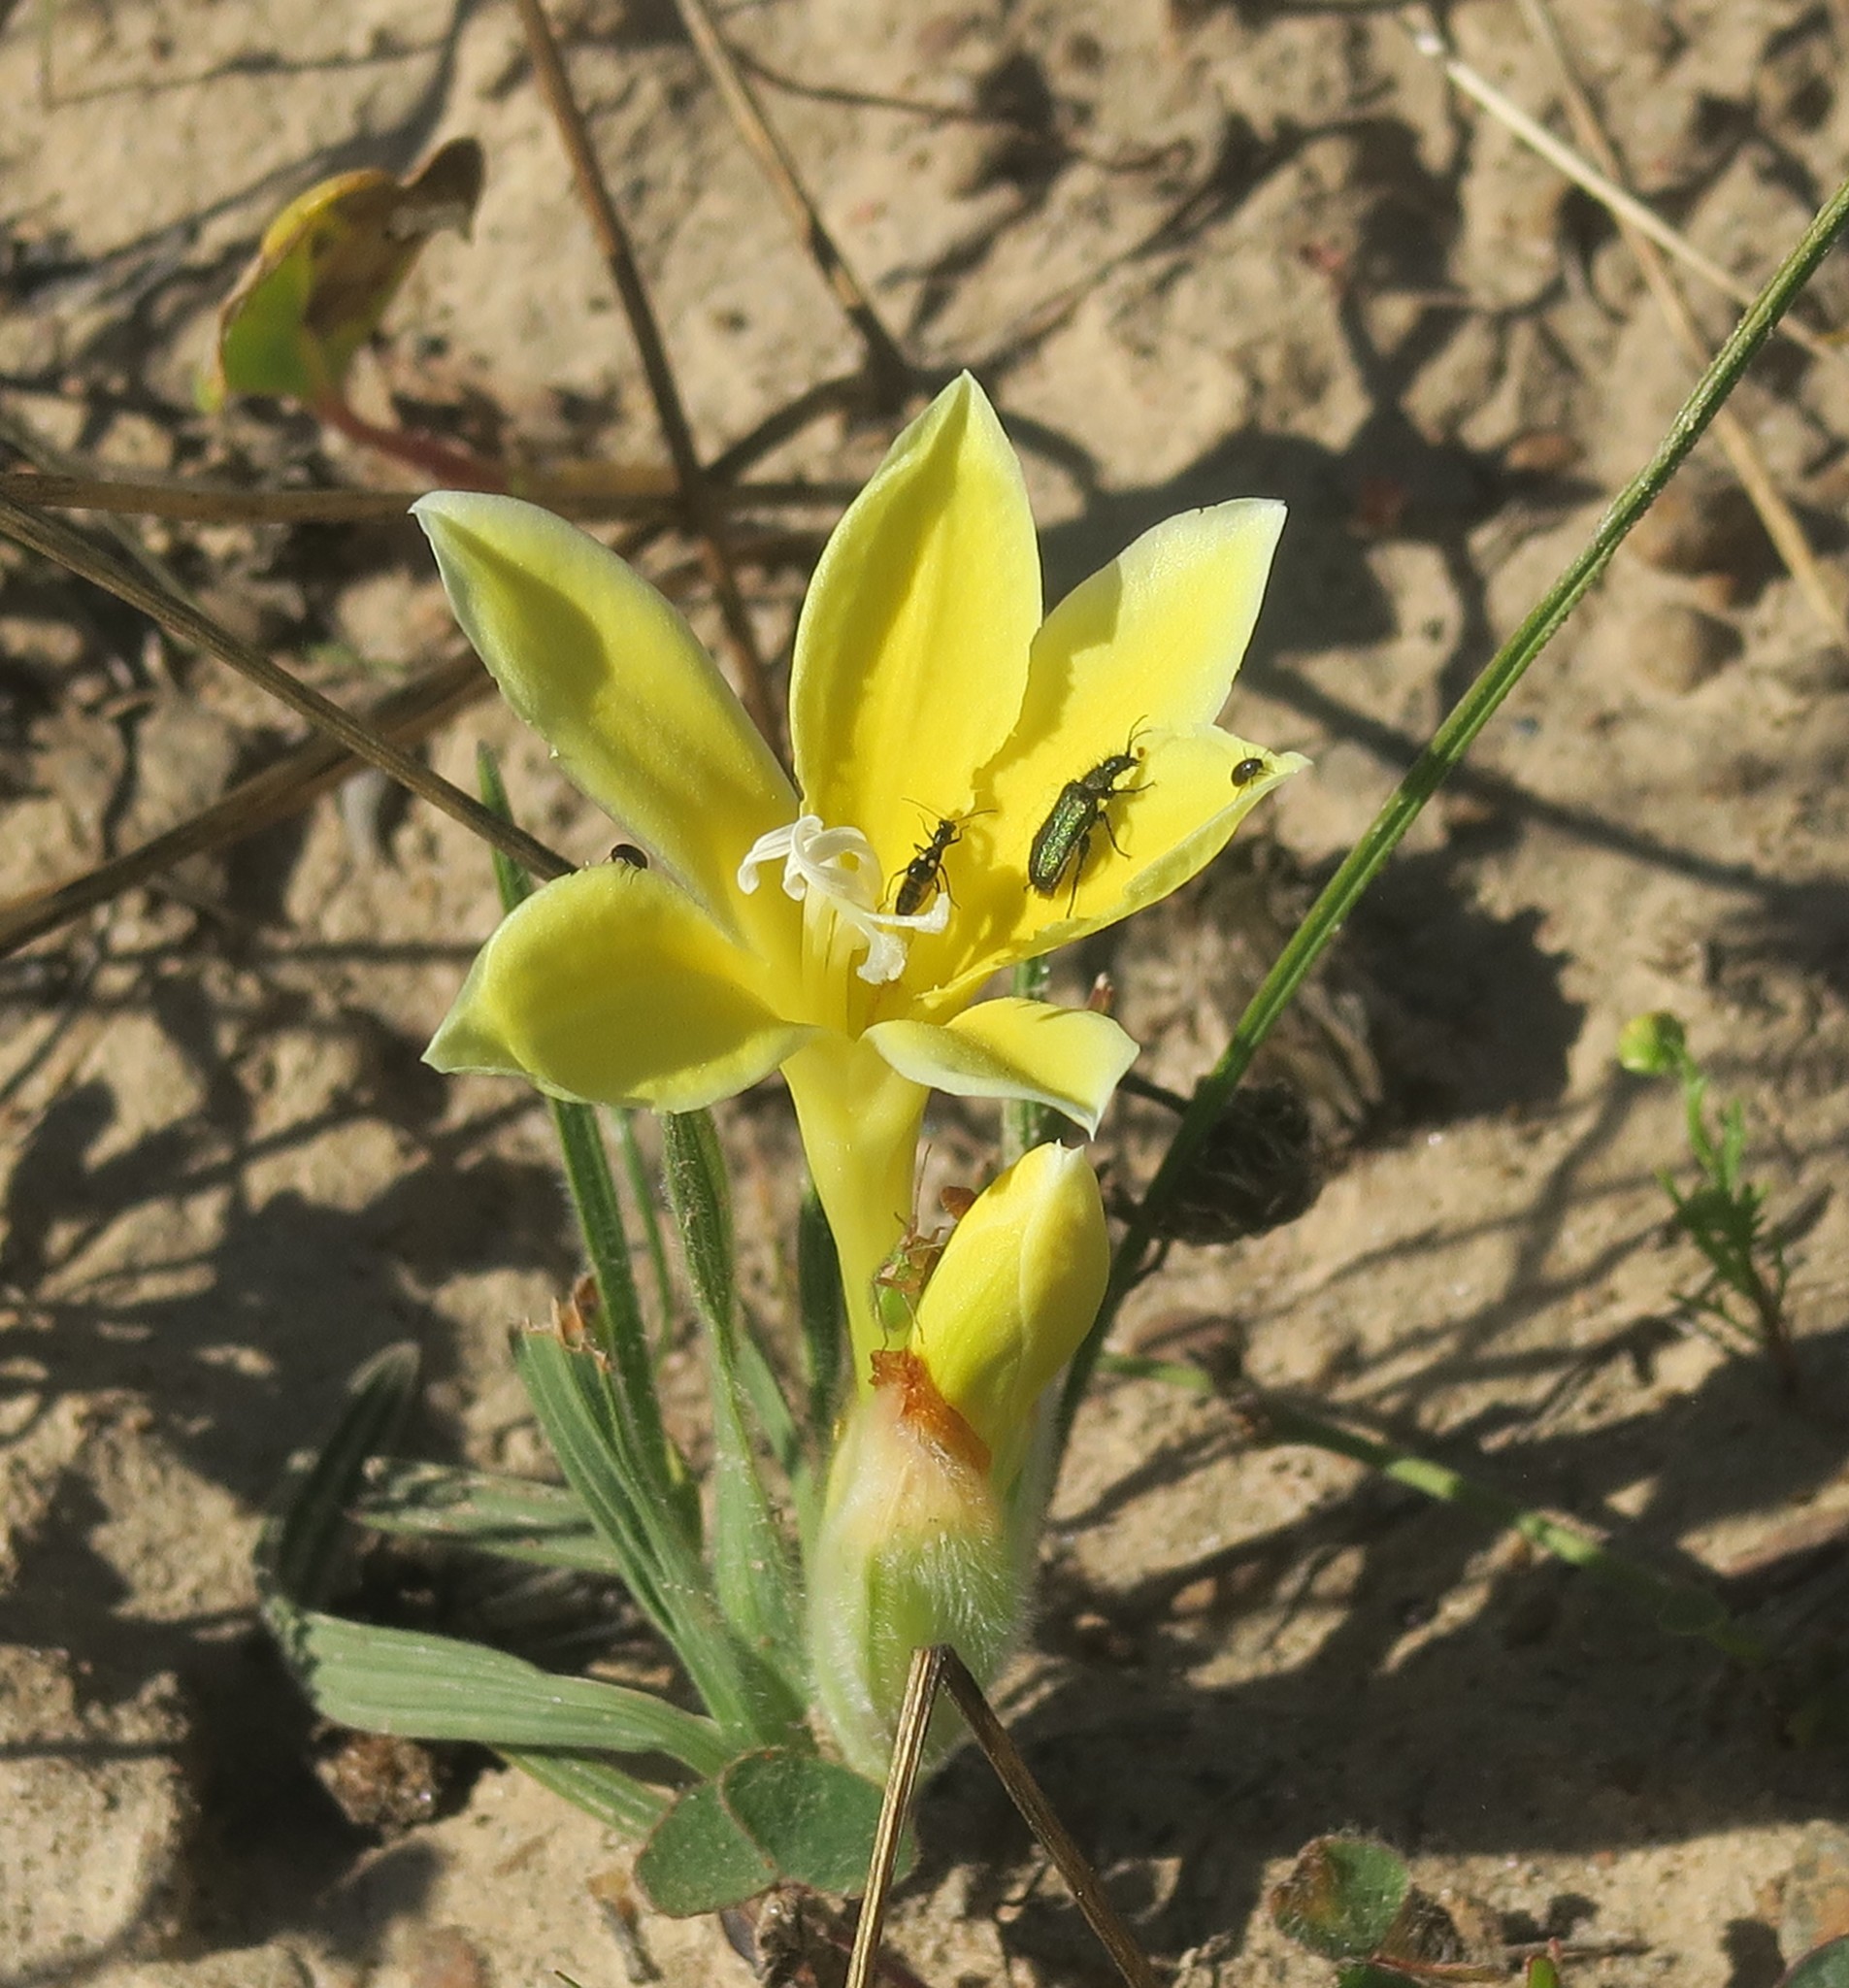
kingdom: Plantae
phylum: Tracheophyta
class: Liliopsida
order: Asparagales
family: Iridaceae
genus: Babiana
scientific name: Babiana vanzijliae
